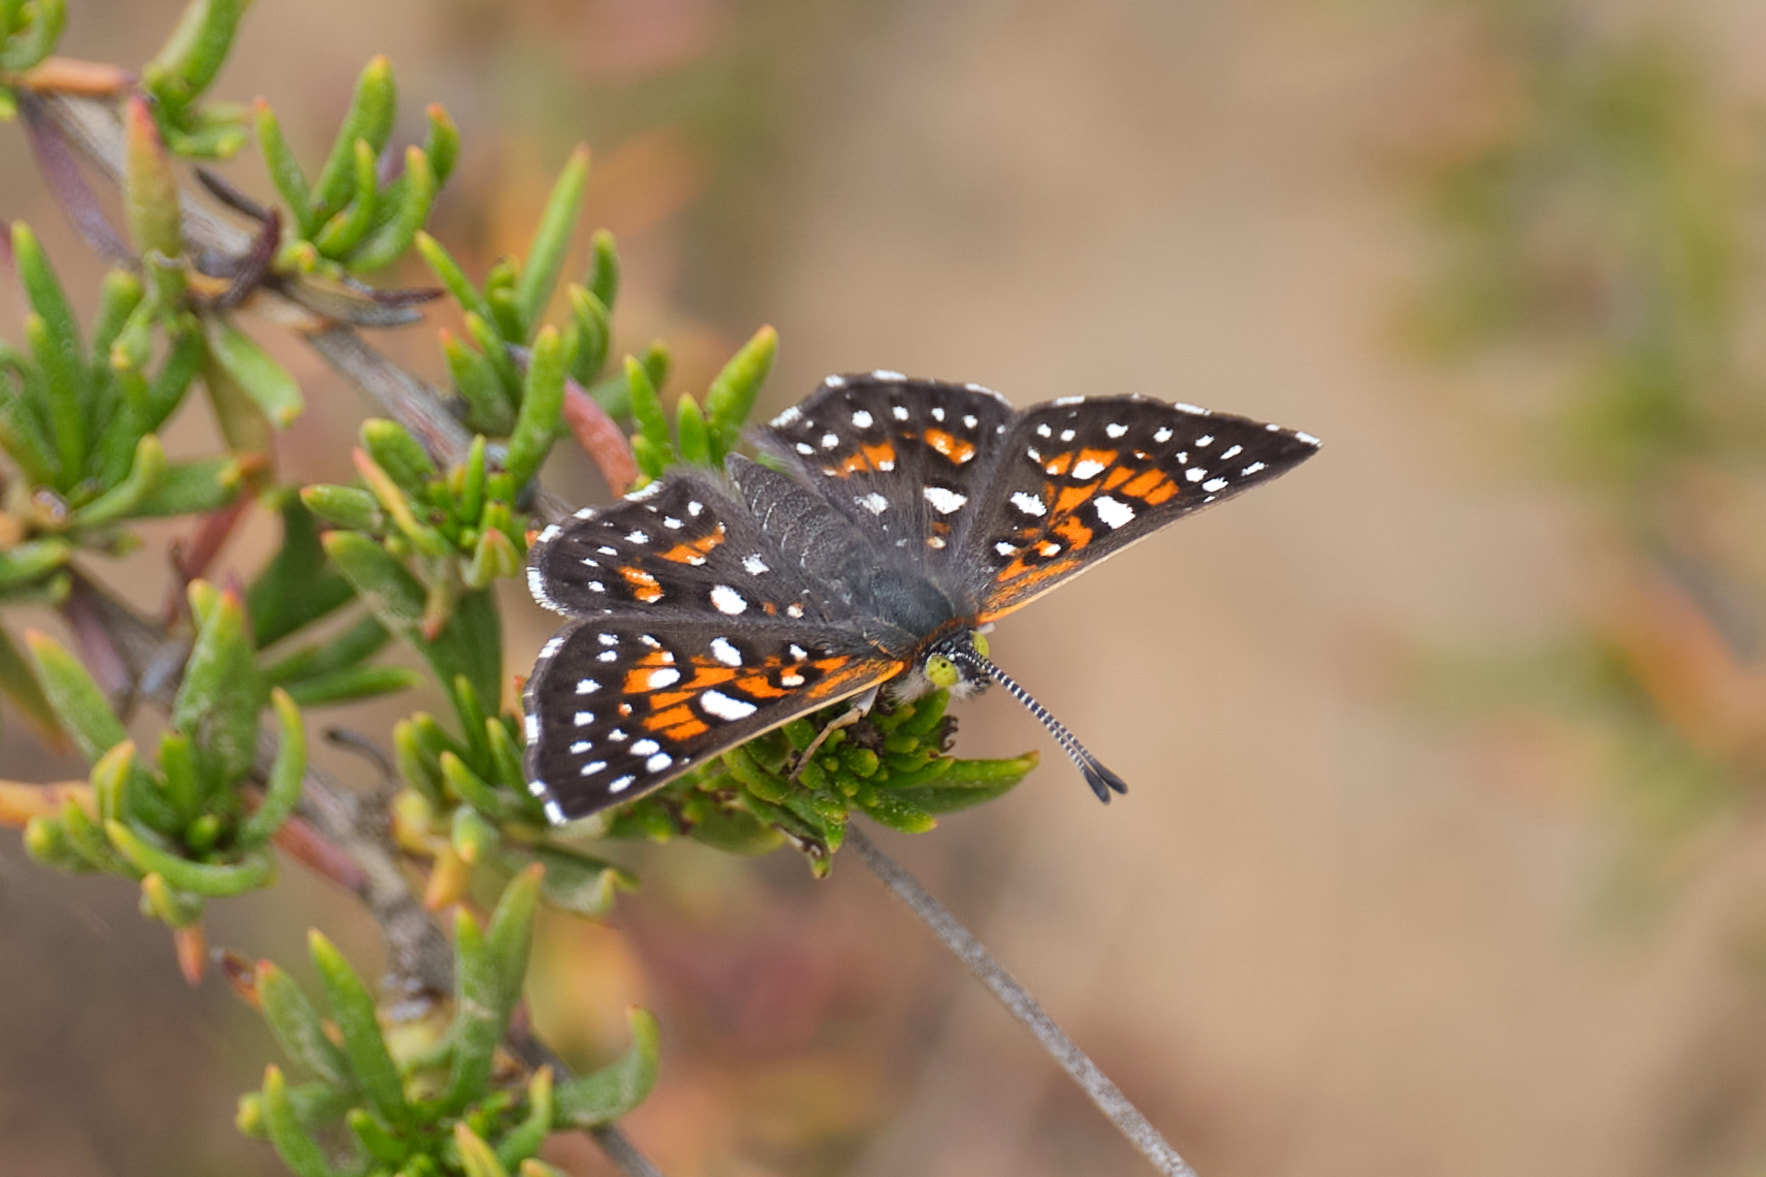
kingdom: Animalia
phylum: Arthropoda
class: Insecta
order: Lepidoptera
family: Riodinidae
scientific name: Riodinidae
